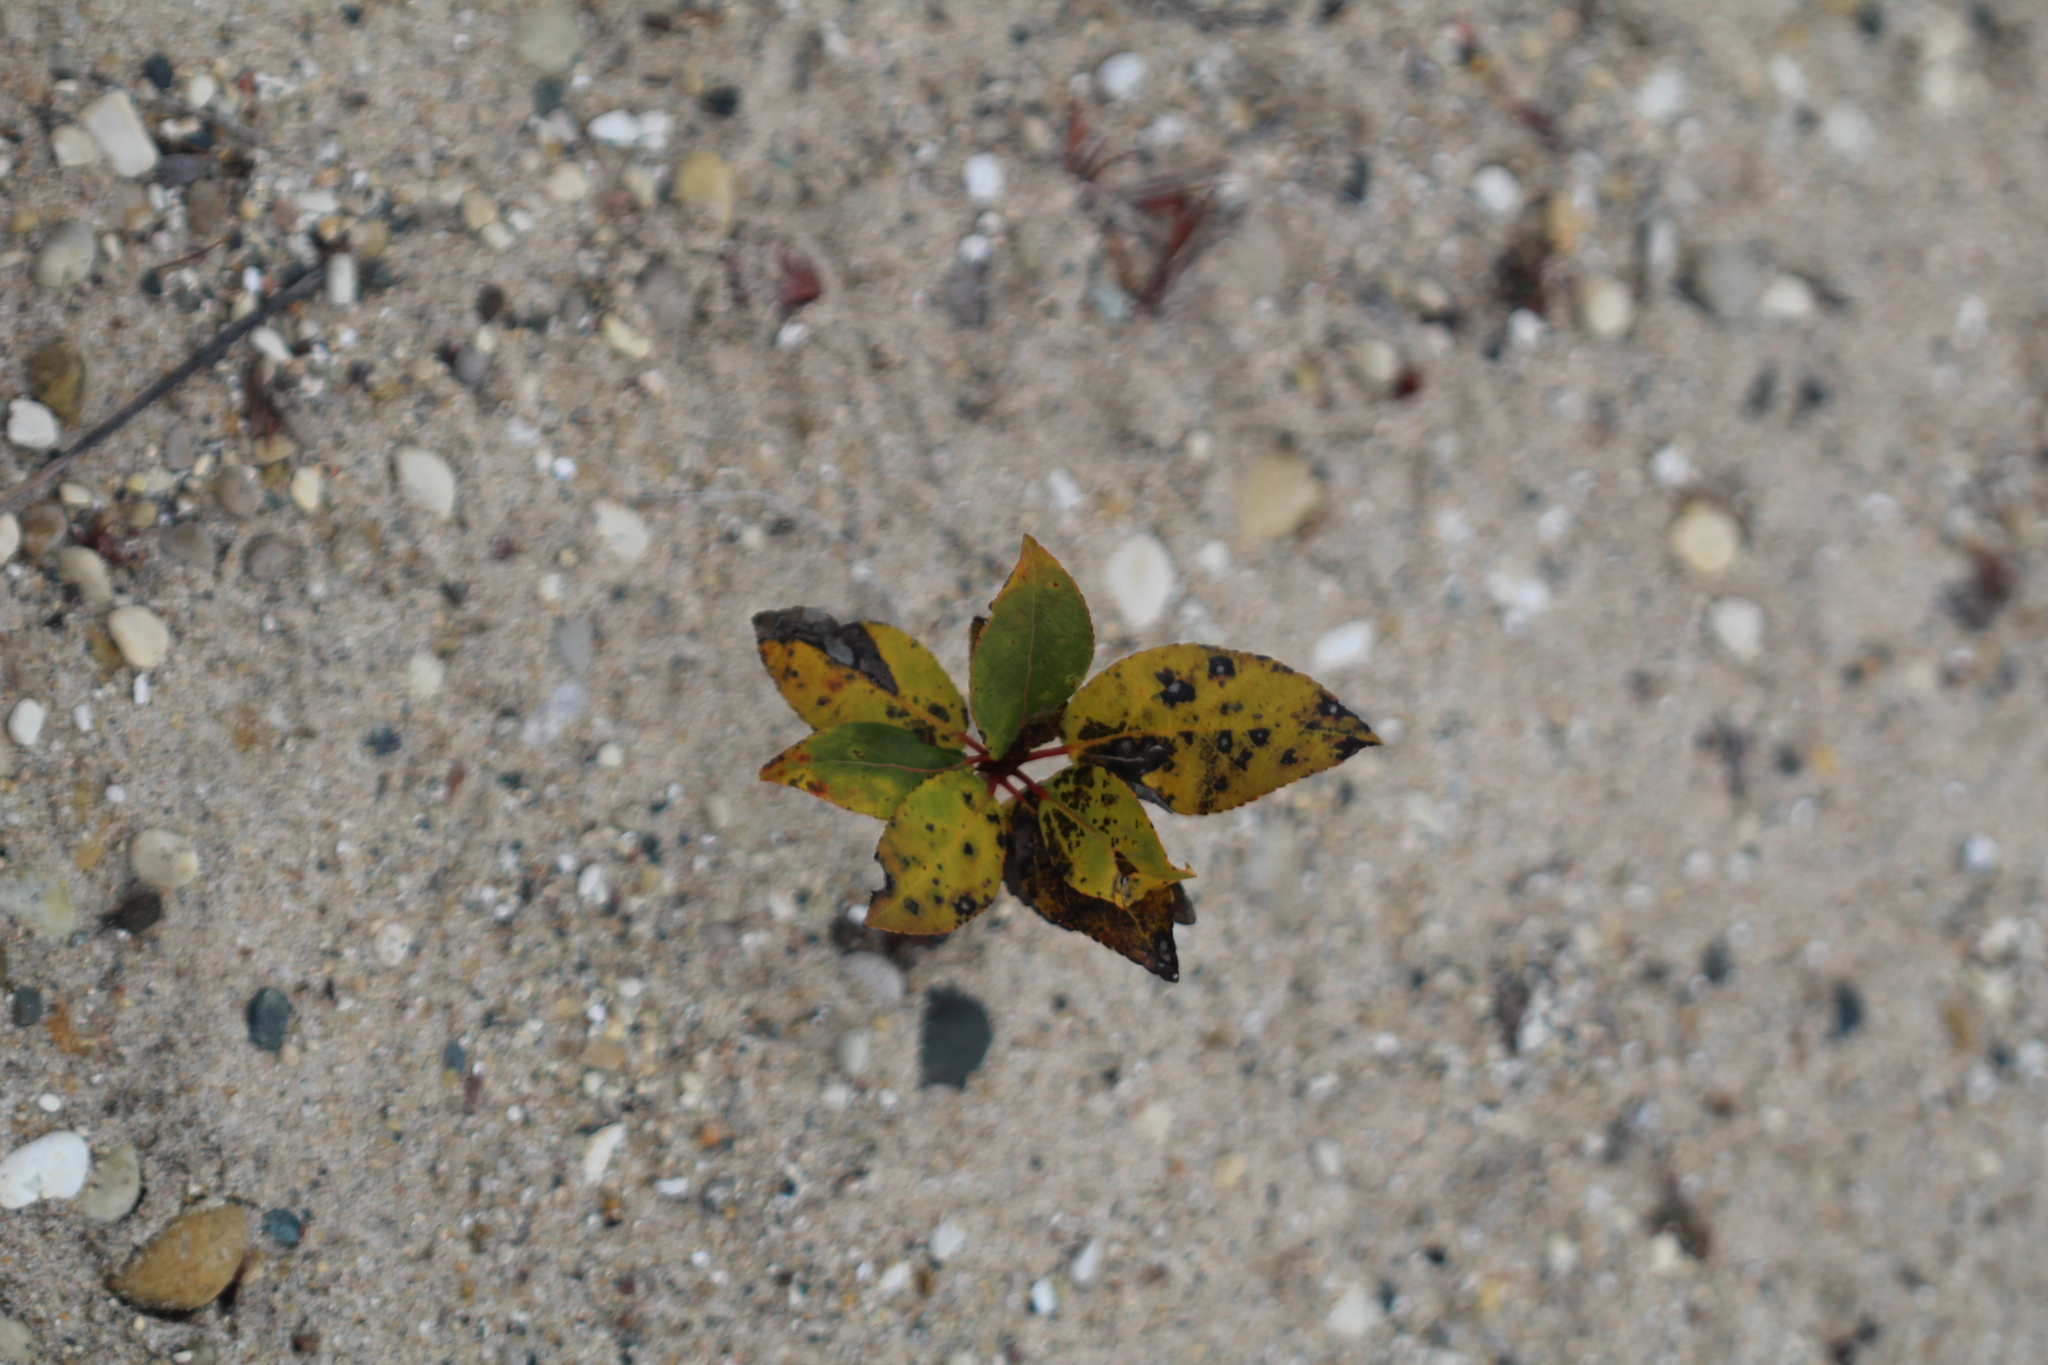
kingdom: Plantae
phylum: Tracheophyta
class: Magnoliopsida
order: Malpighiales
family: Salicaceae
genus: Populus
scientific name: Populus balsamifera
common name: Balsam poplar
